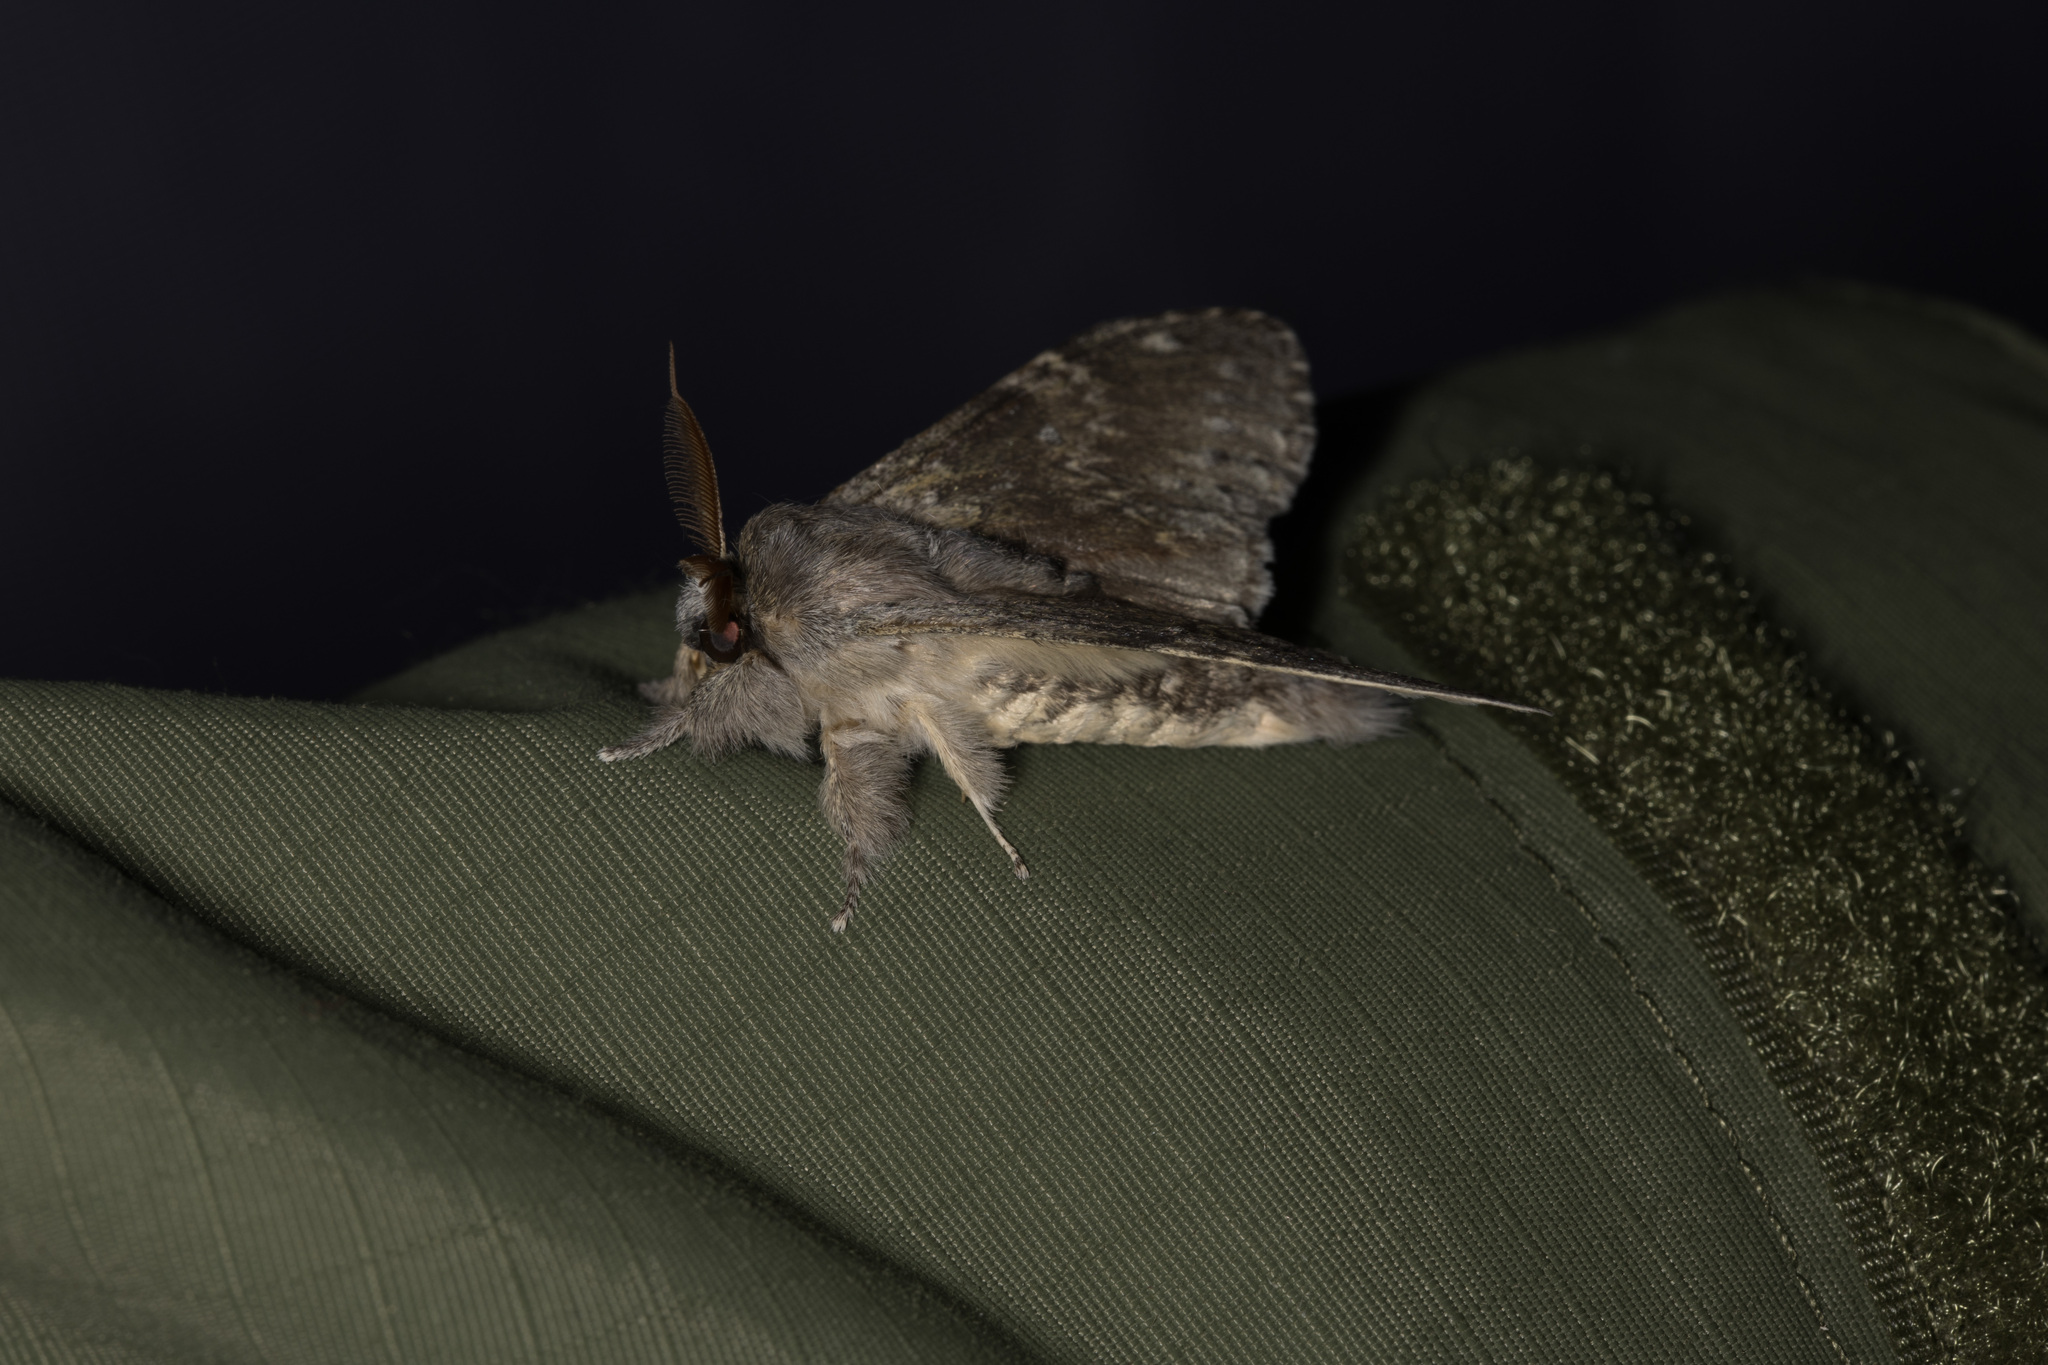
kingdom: Animalia
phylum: Arthropoda
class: Insecta
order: Lepidoptera
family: Notodontidae
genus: Stauropus
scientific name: Stauropus fagi
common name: Lobster moth
